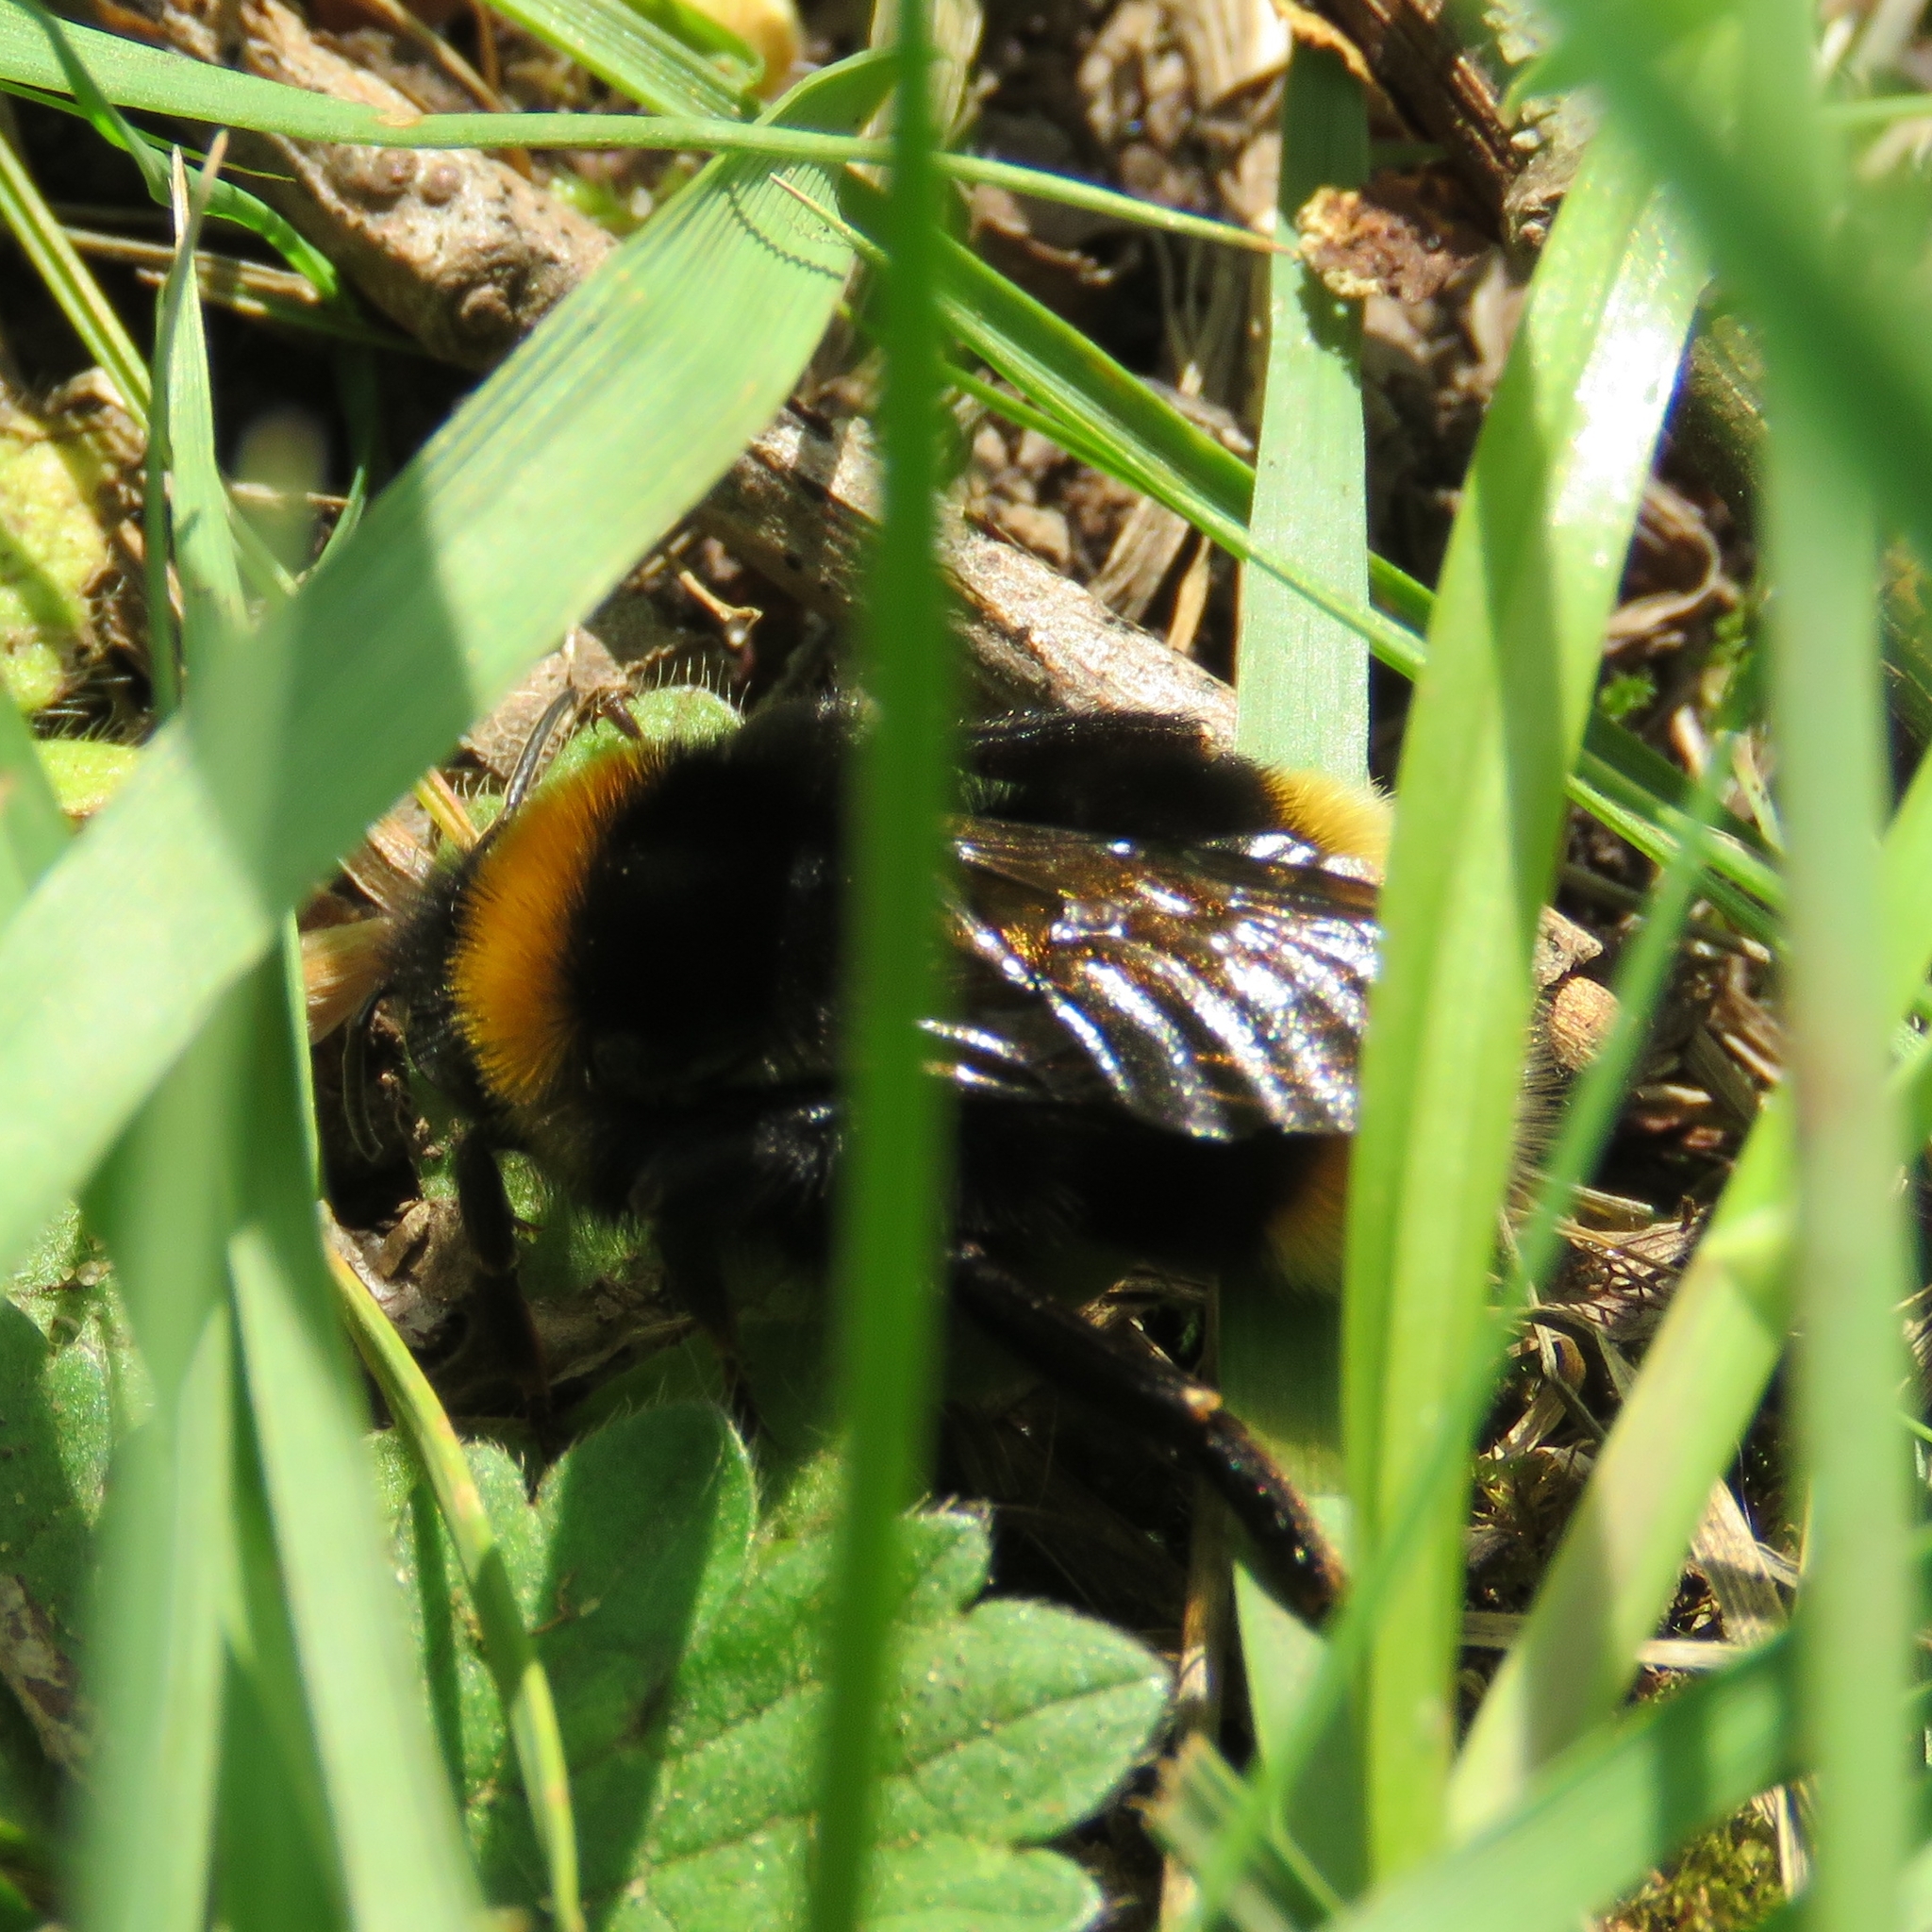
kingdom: Animalia
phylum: Arthropoda
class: Insecta
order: Hymenoptera
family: Apidae
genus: Bombus
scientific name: Bombus vestalis
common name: Vestal cuckoo bee
